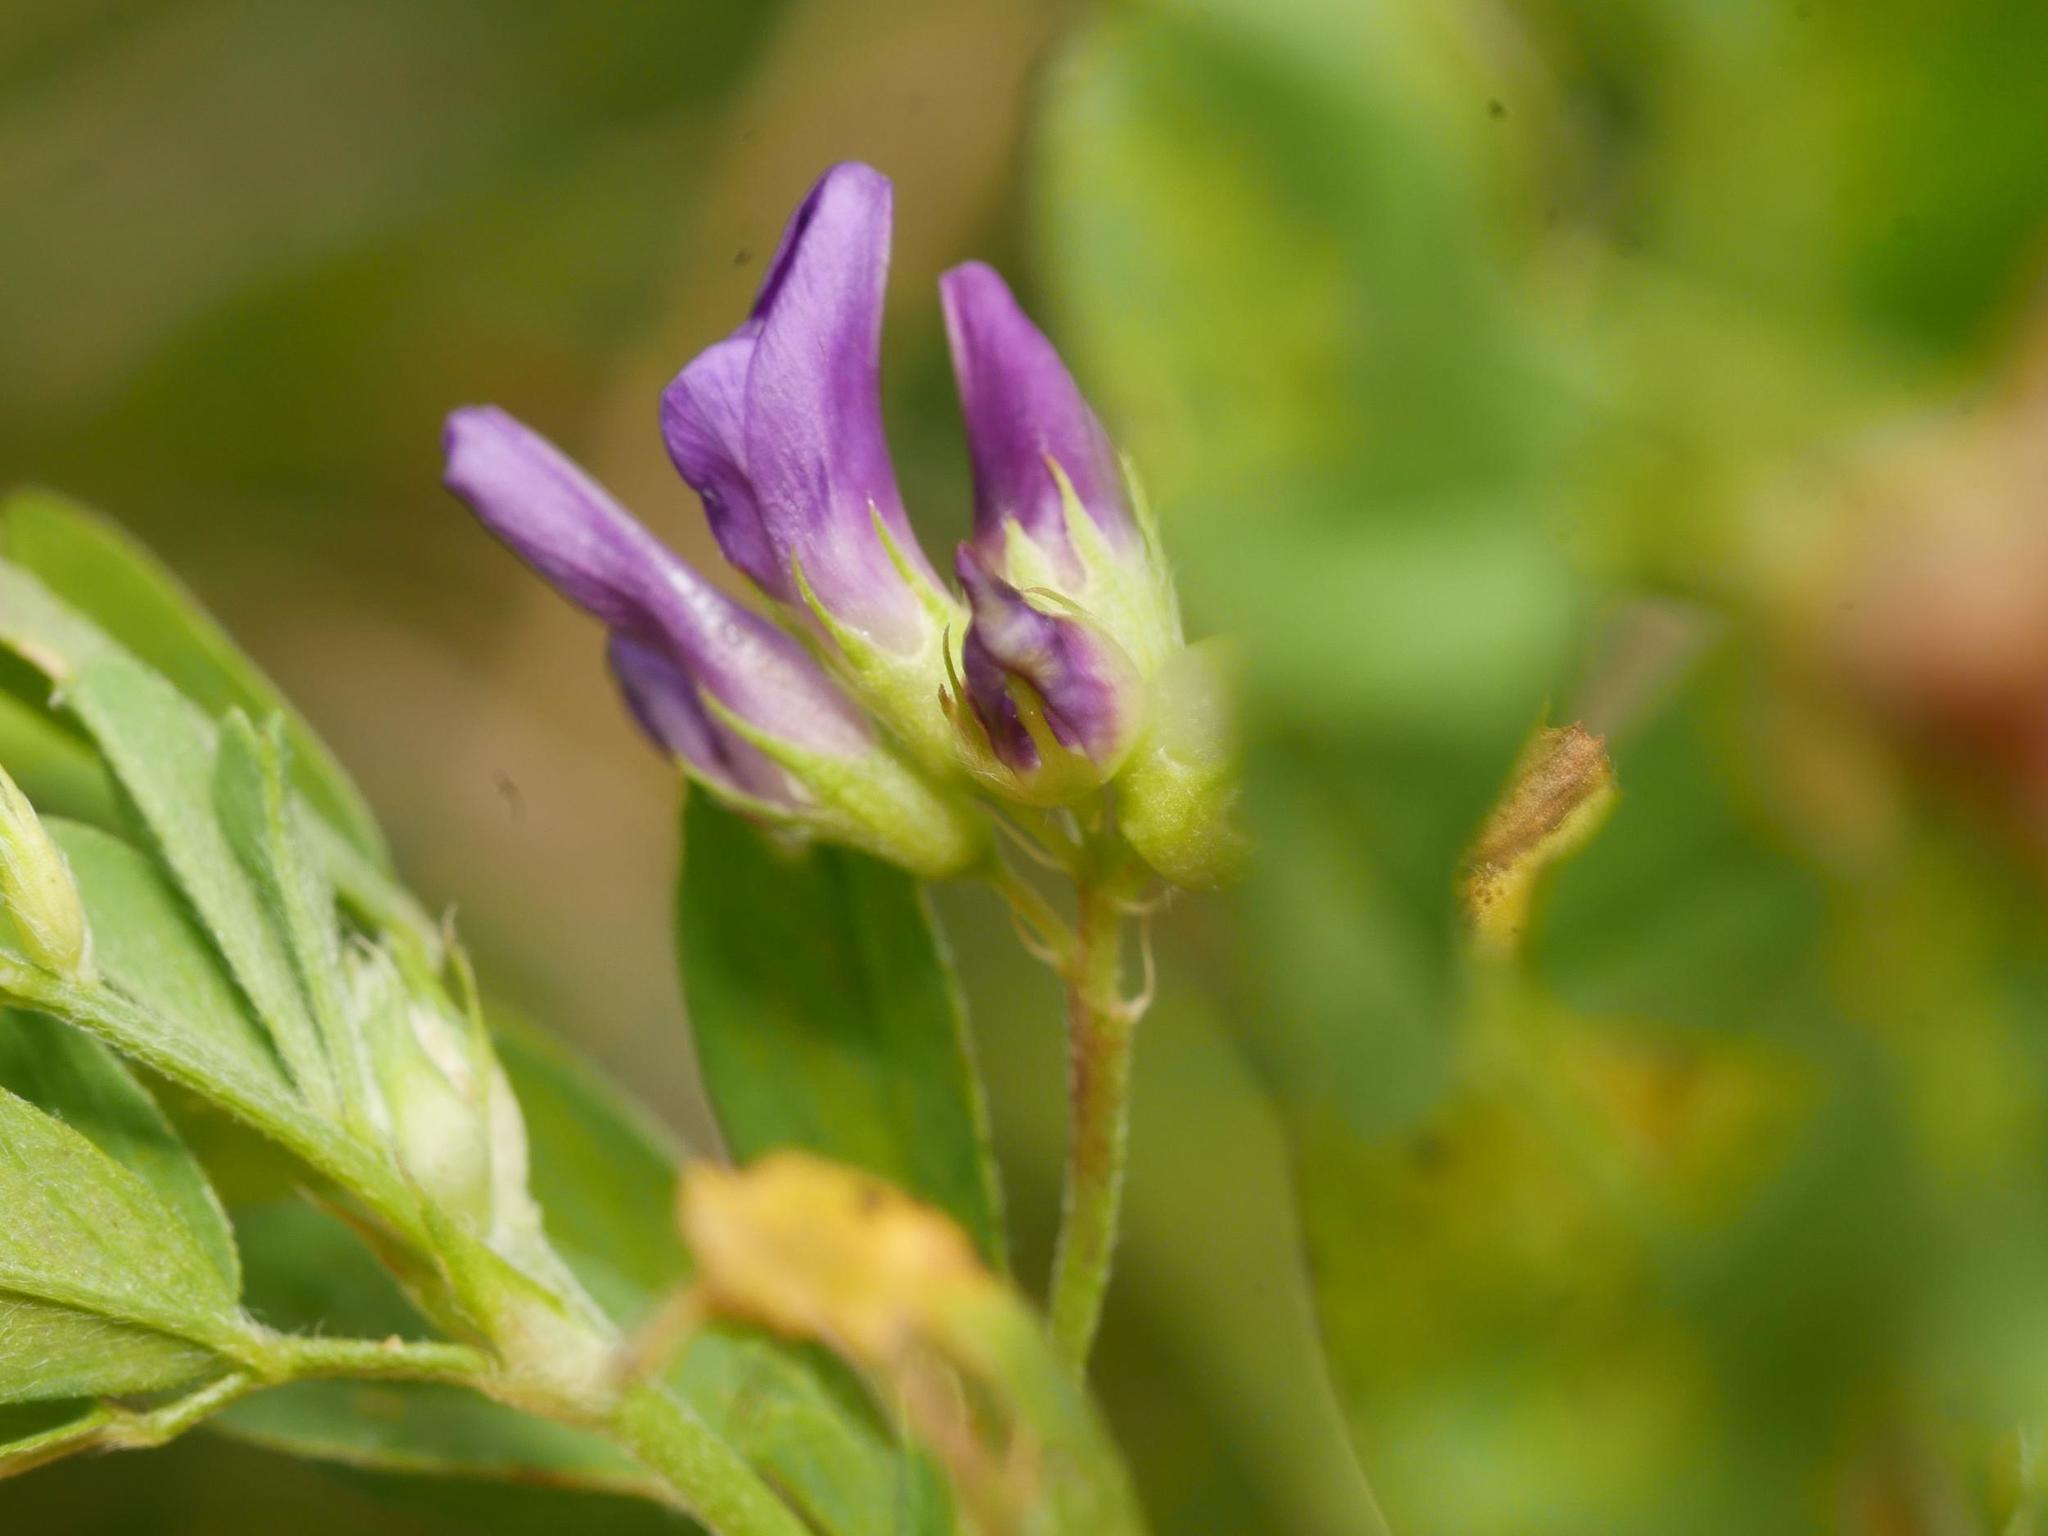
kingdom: Animalia
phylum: Arthropoda
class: Insecta
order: Diptera
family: Cecidomyiidae
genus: Contarinia
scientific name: Contarinia medicaginis
